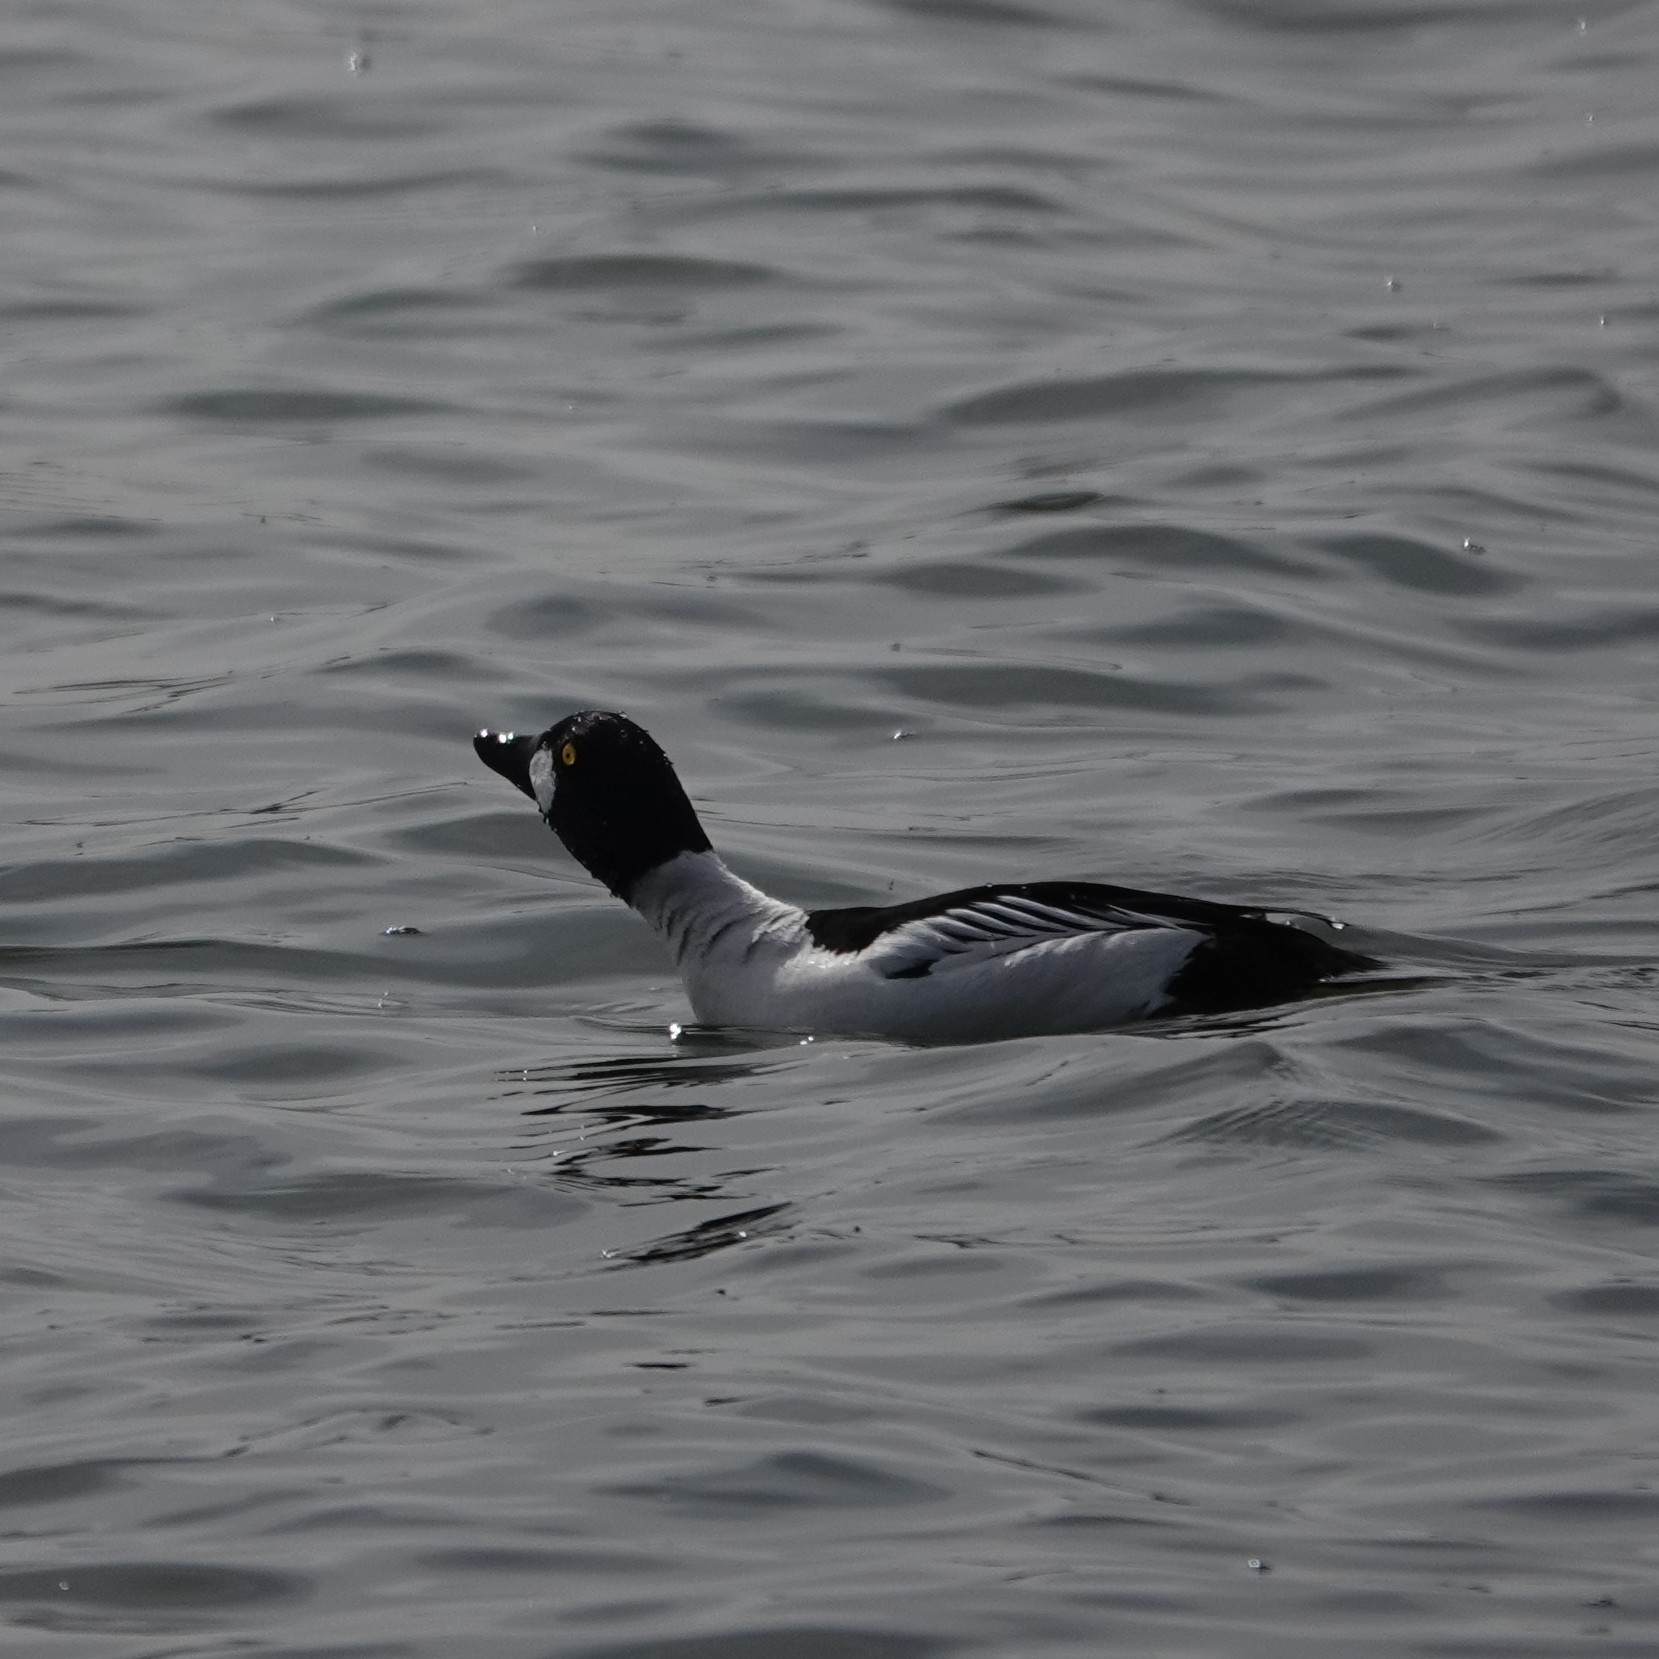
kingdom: Animalia
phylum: Chordata
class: Aves
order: Anseriformes
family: Anatidae
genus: Bucephala
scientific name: Bucephala clangula
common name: Common goldeneye
